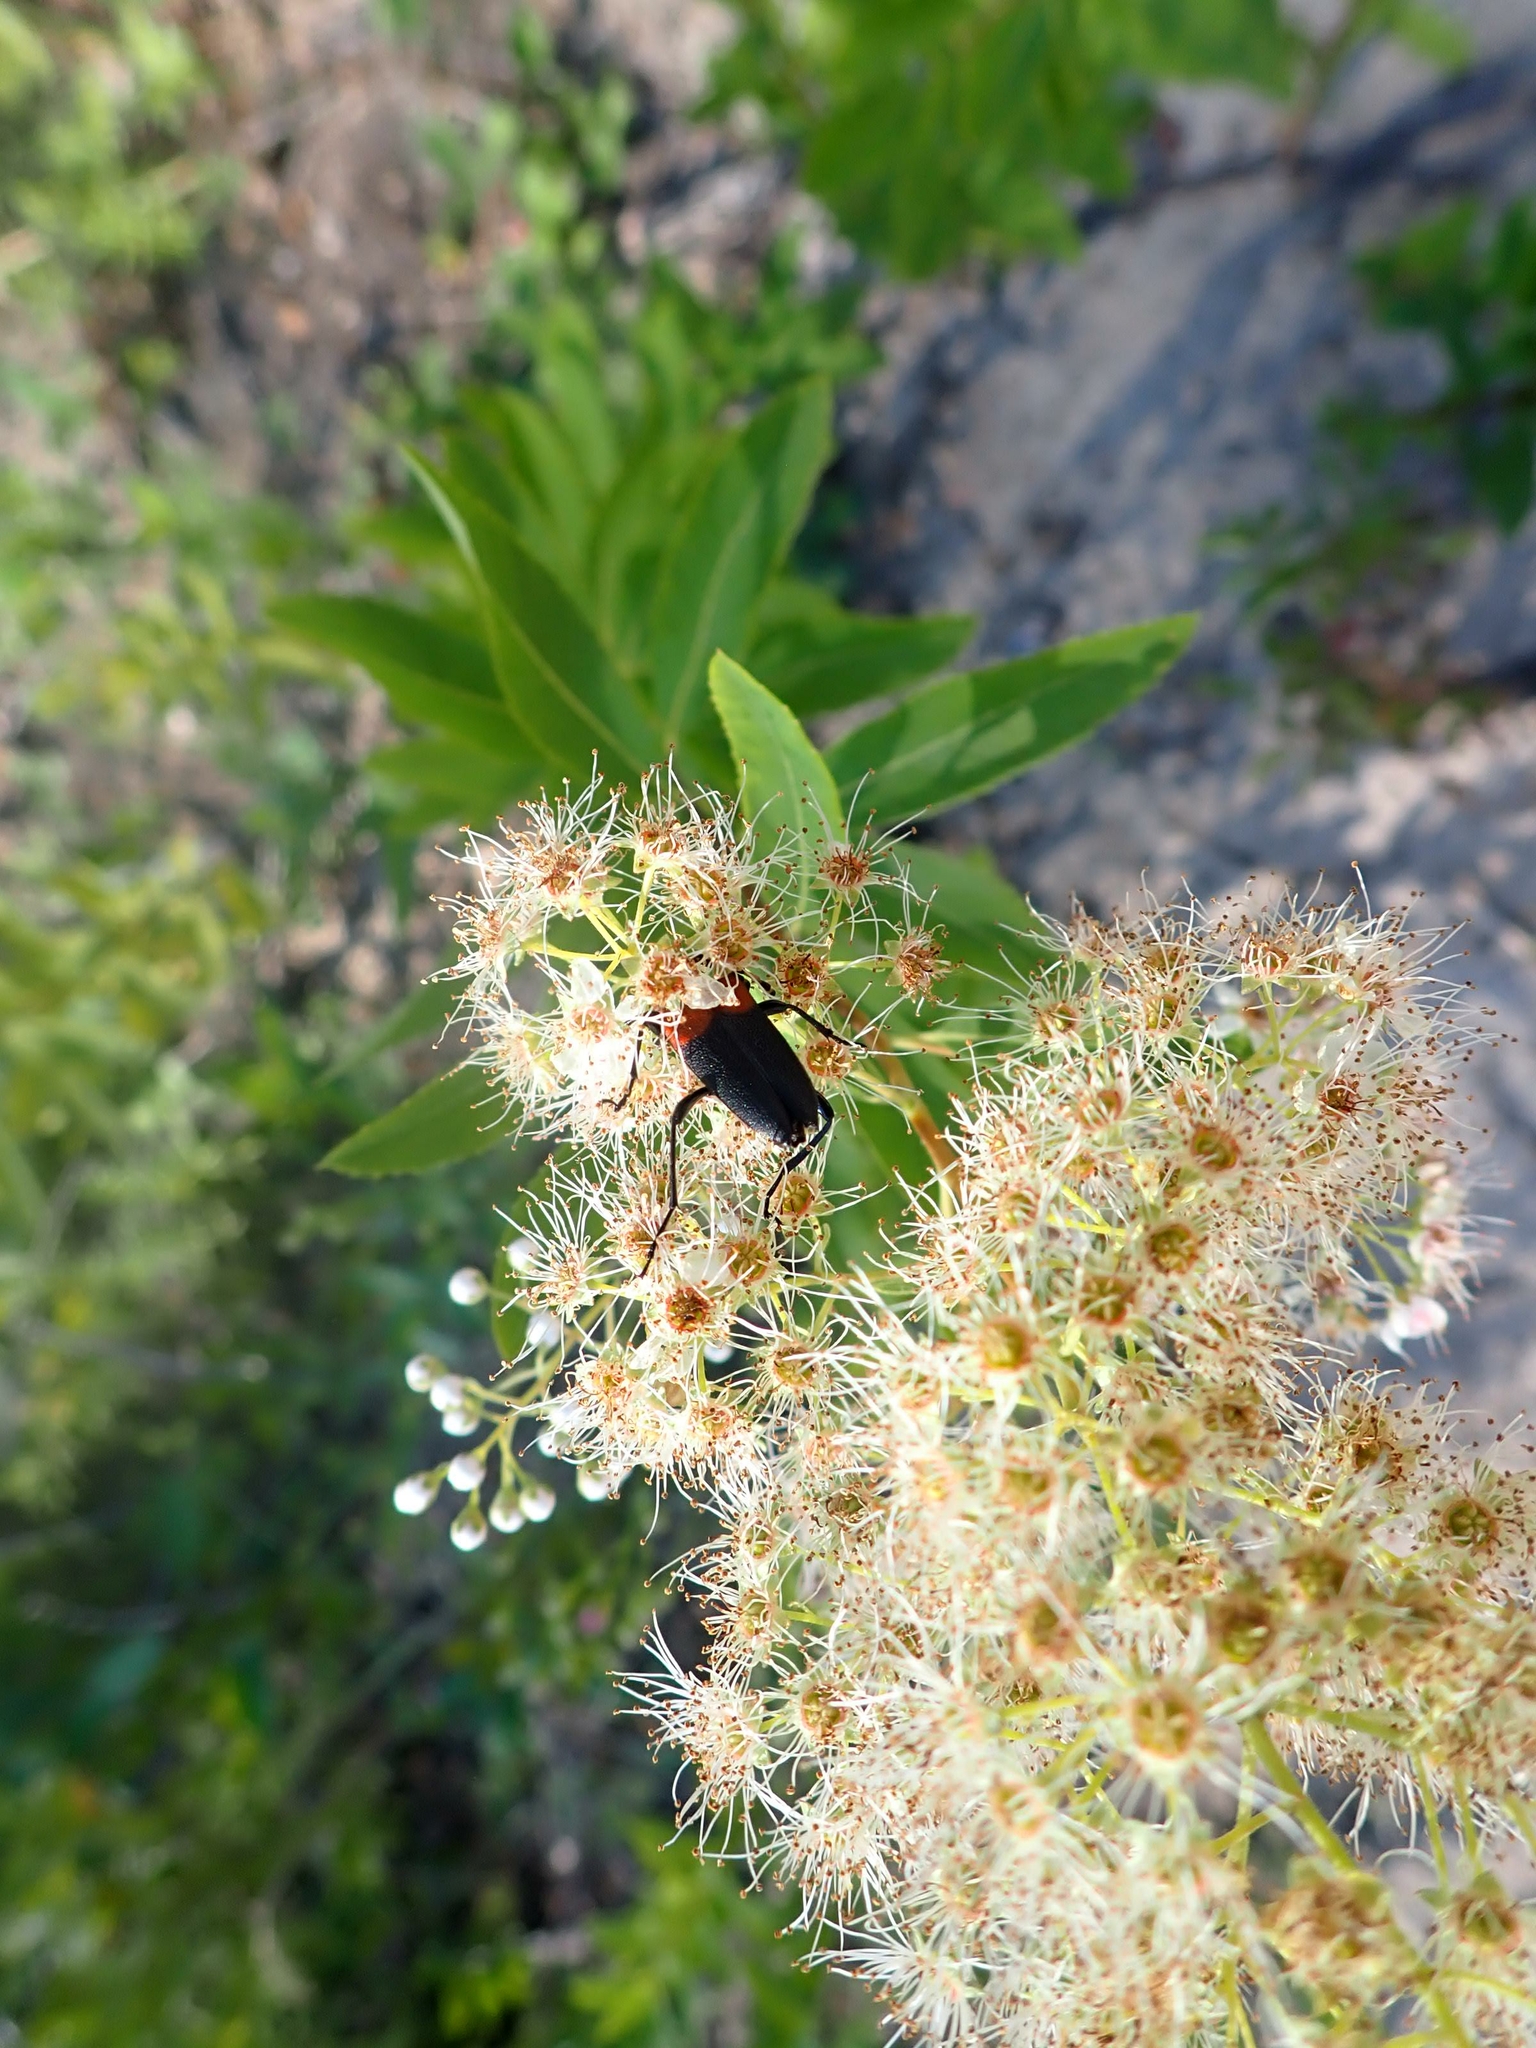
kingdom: Plantae
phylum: Tracheophyta
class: Magnoliopsida
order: Rosales
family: Rosaceae
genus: Spiraea
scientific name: Spiraea alba
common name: Pale bridewort
